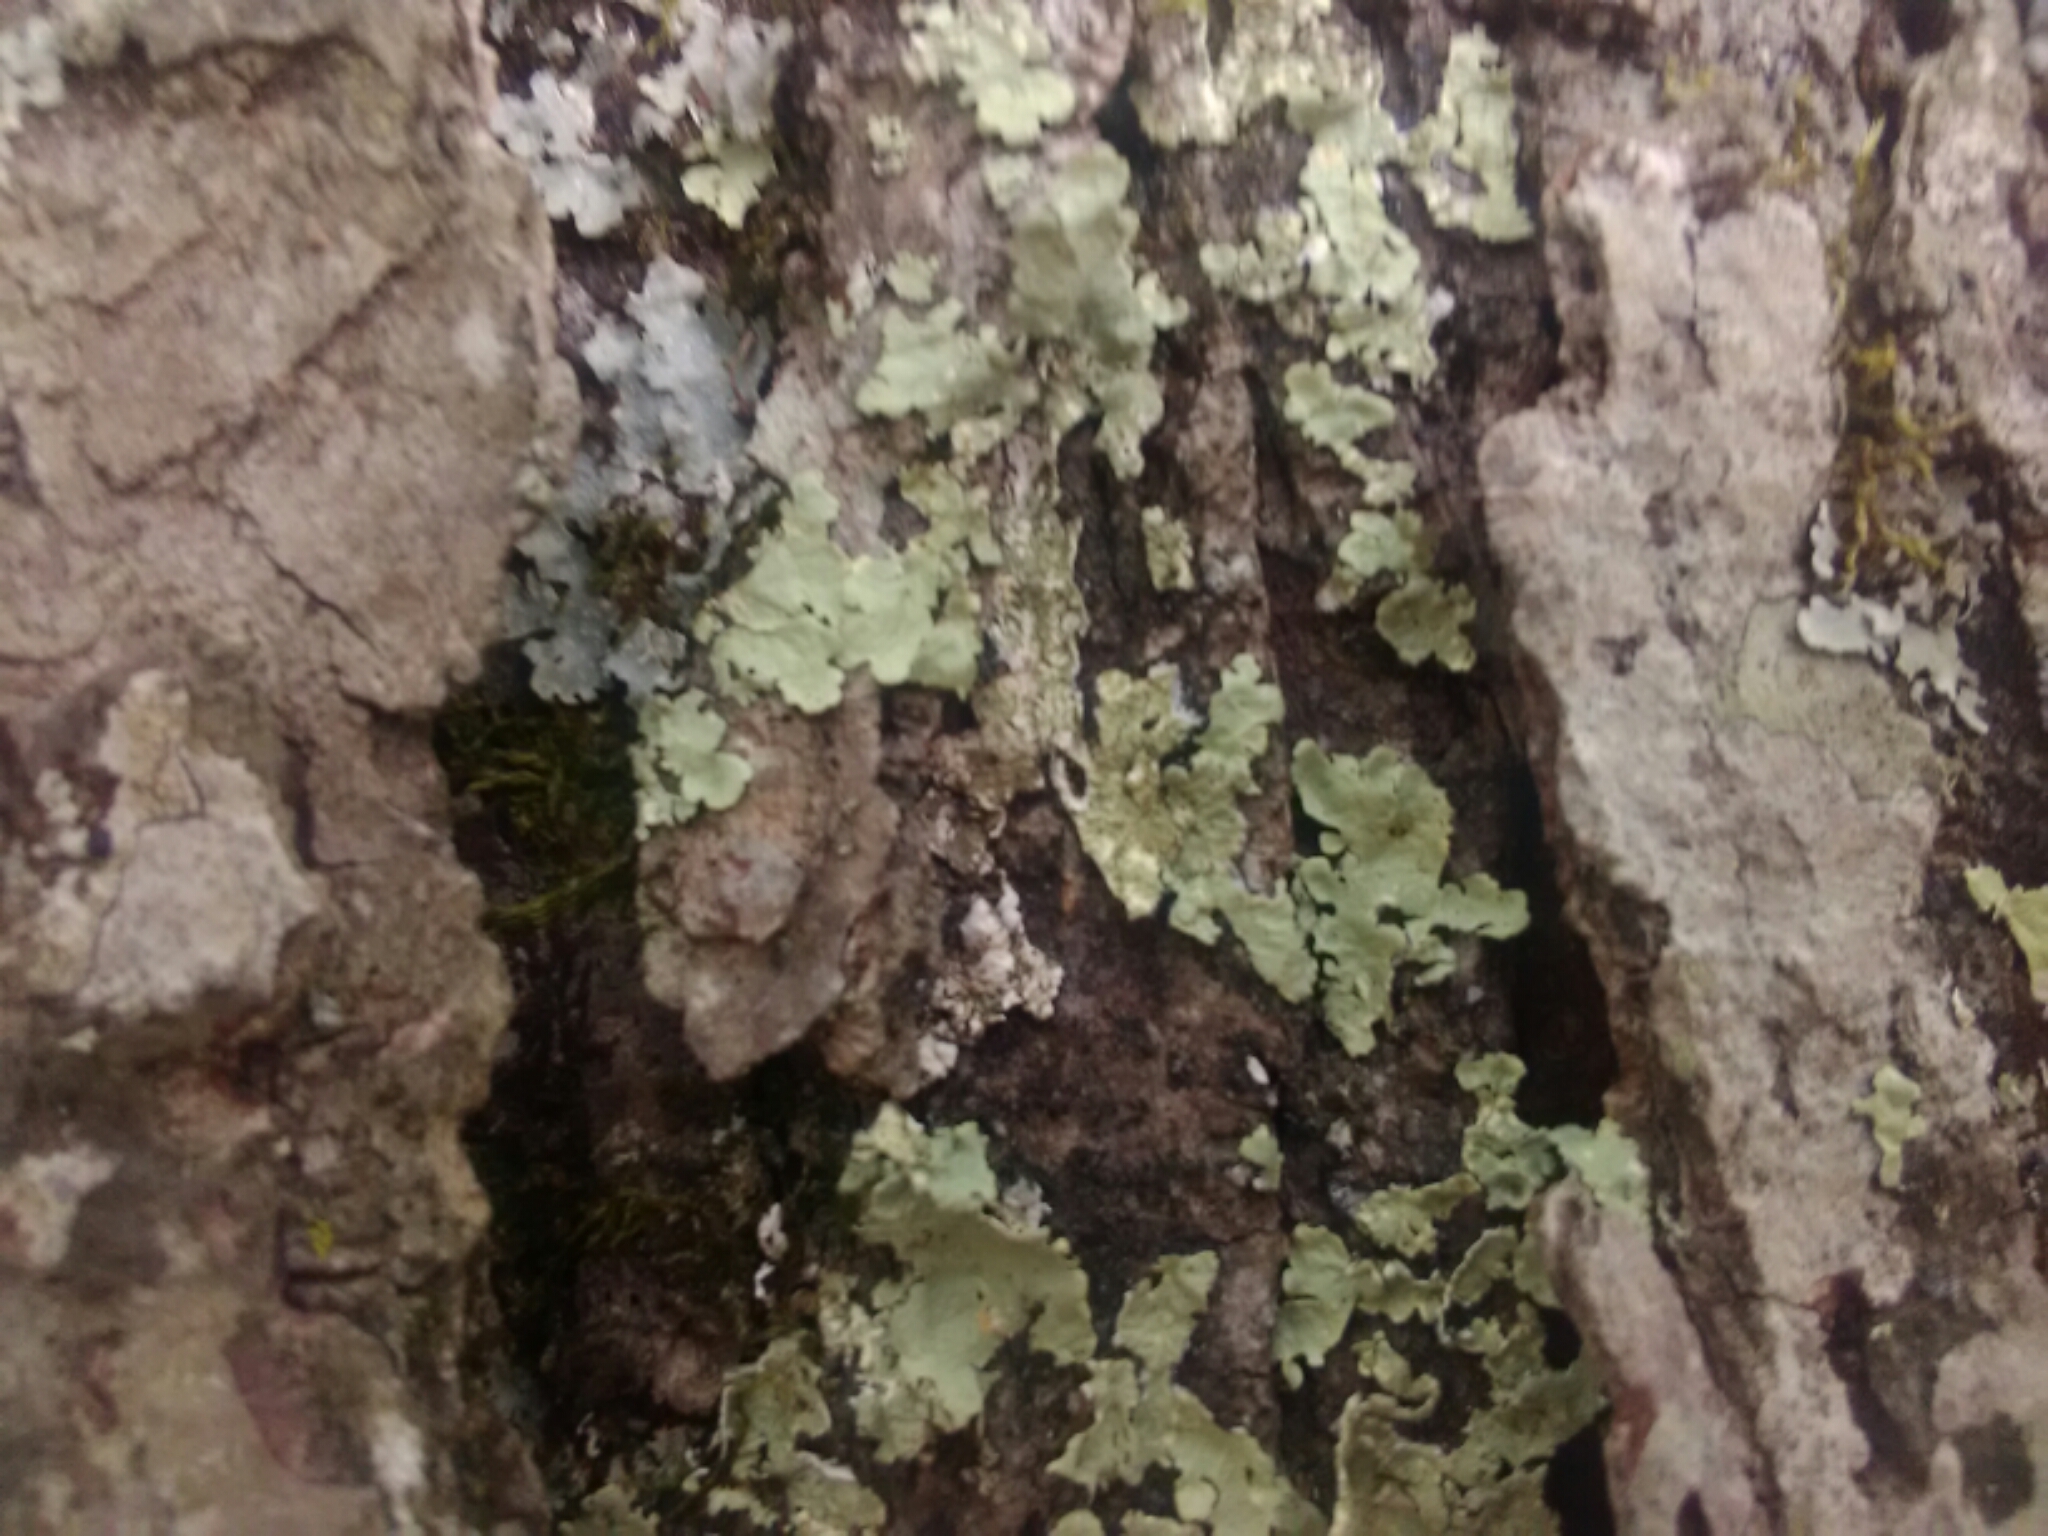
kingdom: Fungi
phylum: Ascomycota
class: Lecanoromycetes
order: Lecanorales
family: Parmeliaceae
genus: Flavoparmelia
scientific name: Flavoparmelia caperata
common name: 40-mile per hour lichen
